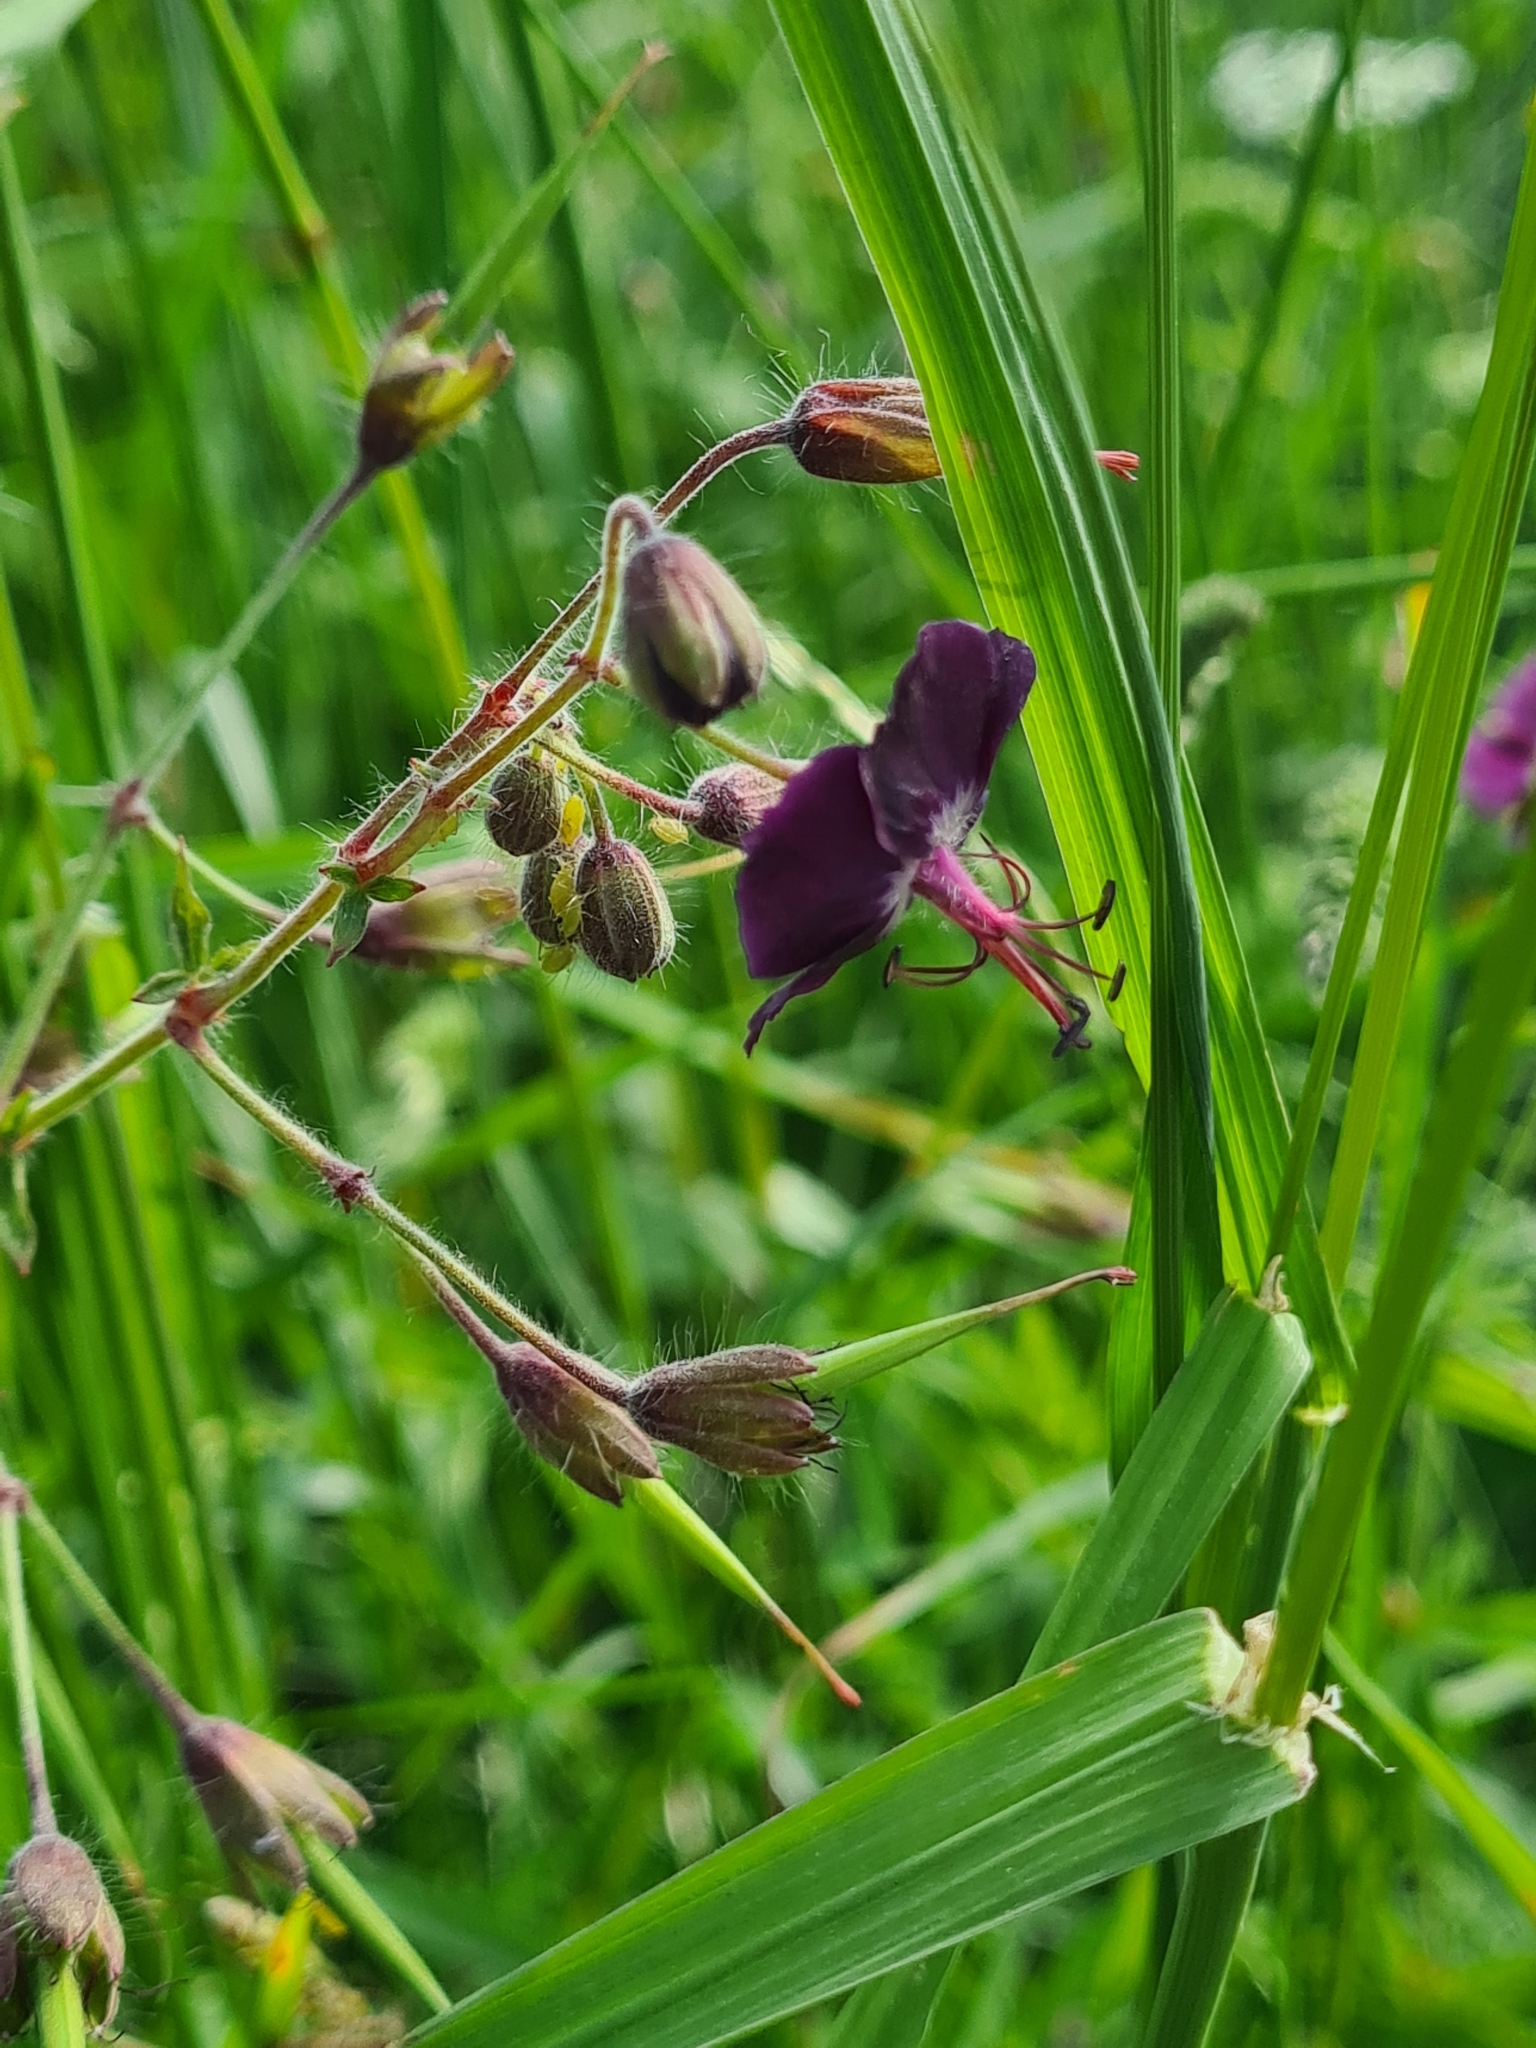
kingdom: Plantae
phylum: Tracheophyta
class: Magnoliopsida
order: Geraniales
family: Geraniaceae
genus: Geranium
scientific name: Geranium phaeum
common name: Dusky crane's-bill
